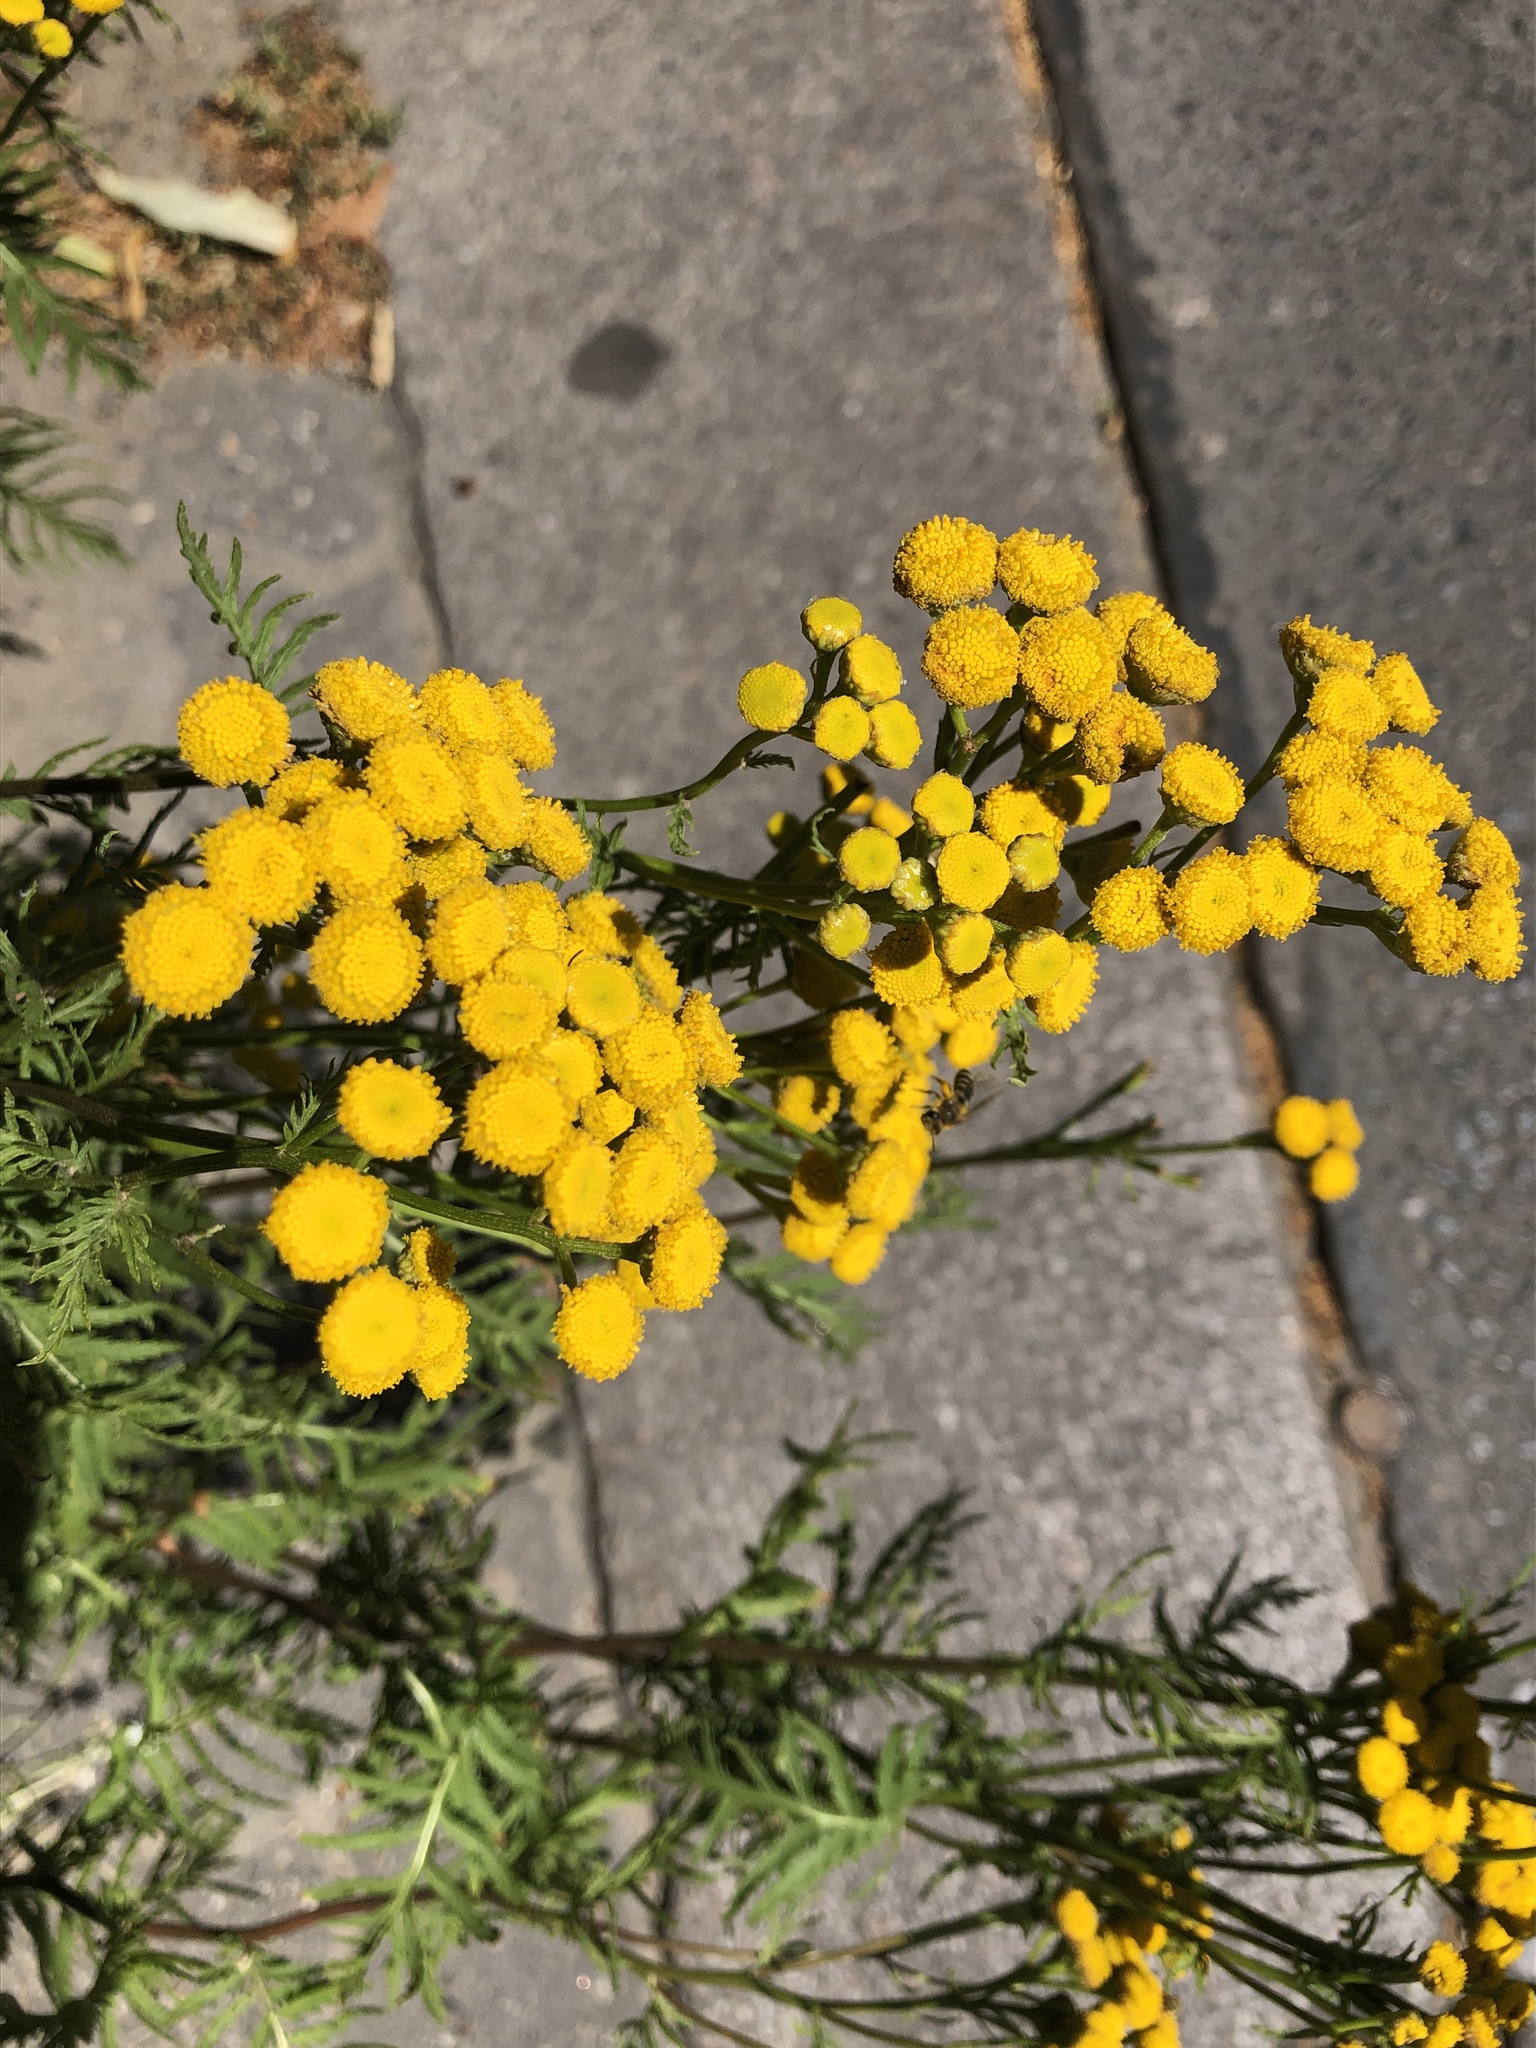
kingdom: Plantae
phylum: Tracheophyta
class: Magnoliopsida
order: Asterales
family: Asteraceae
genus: Tanacetum
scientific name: Tanacetum vulgare
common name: Common tansy
